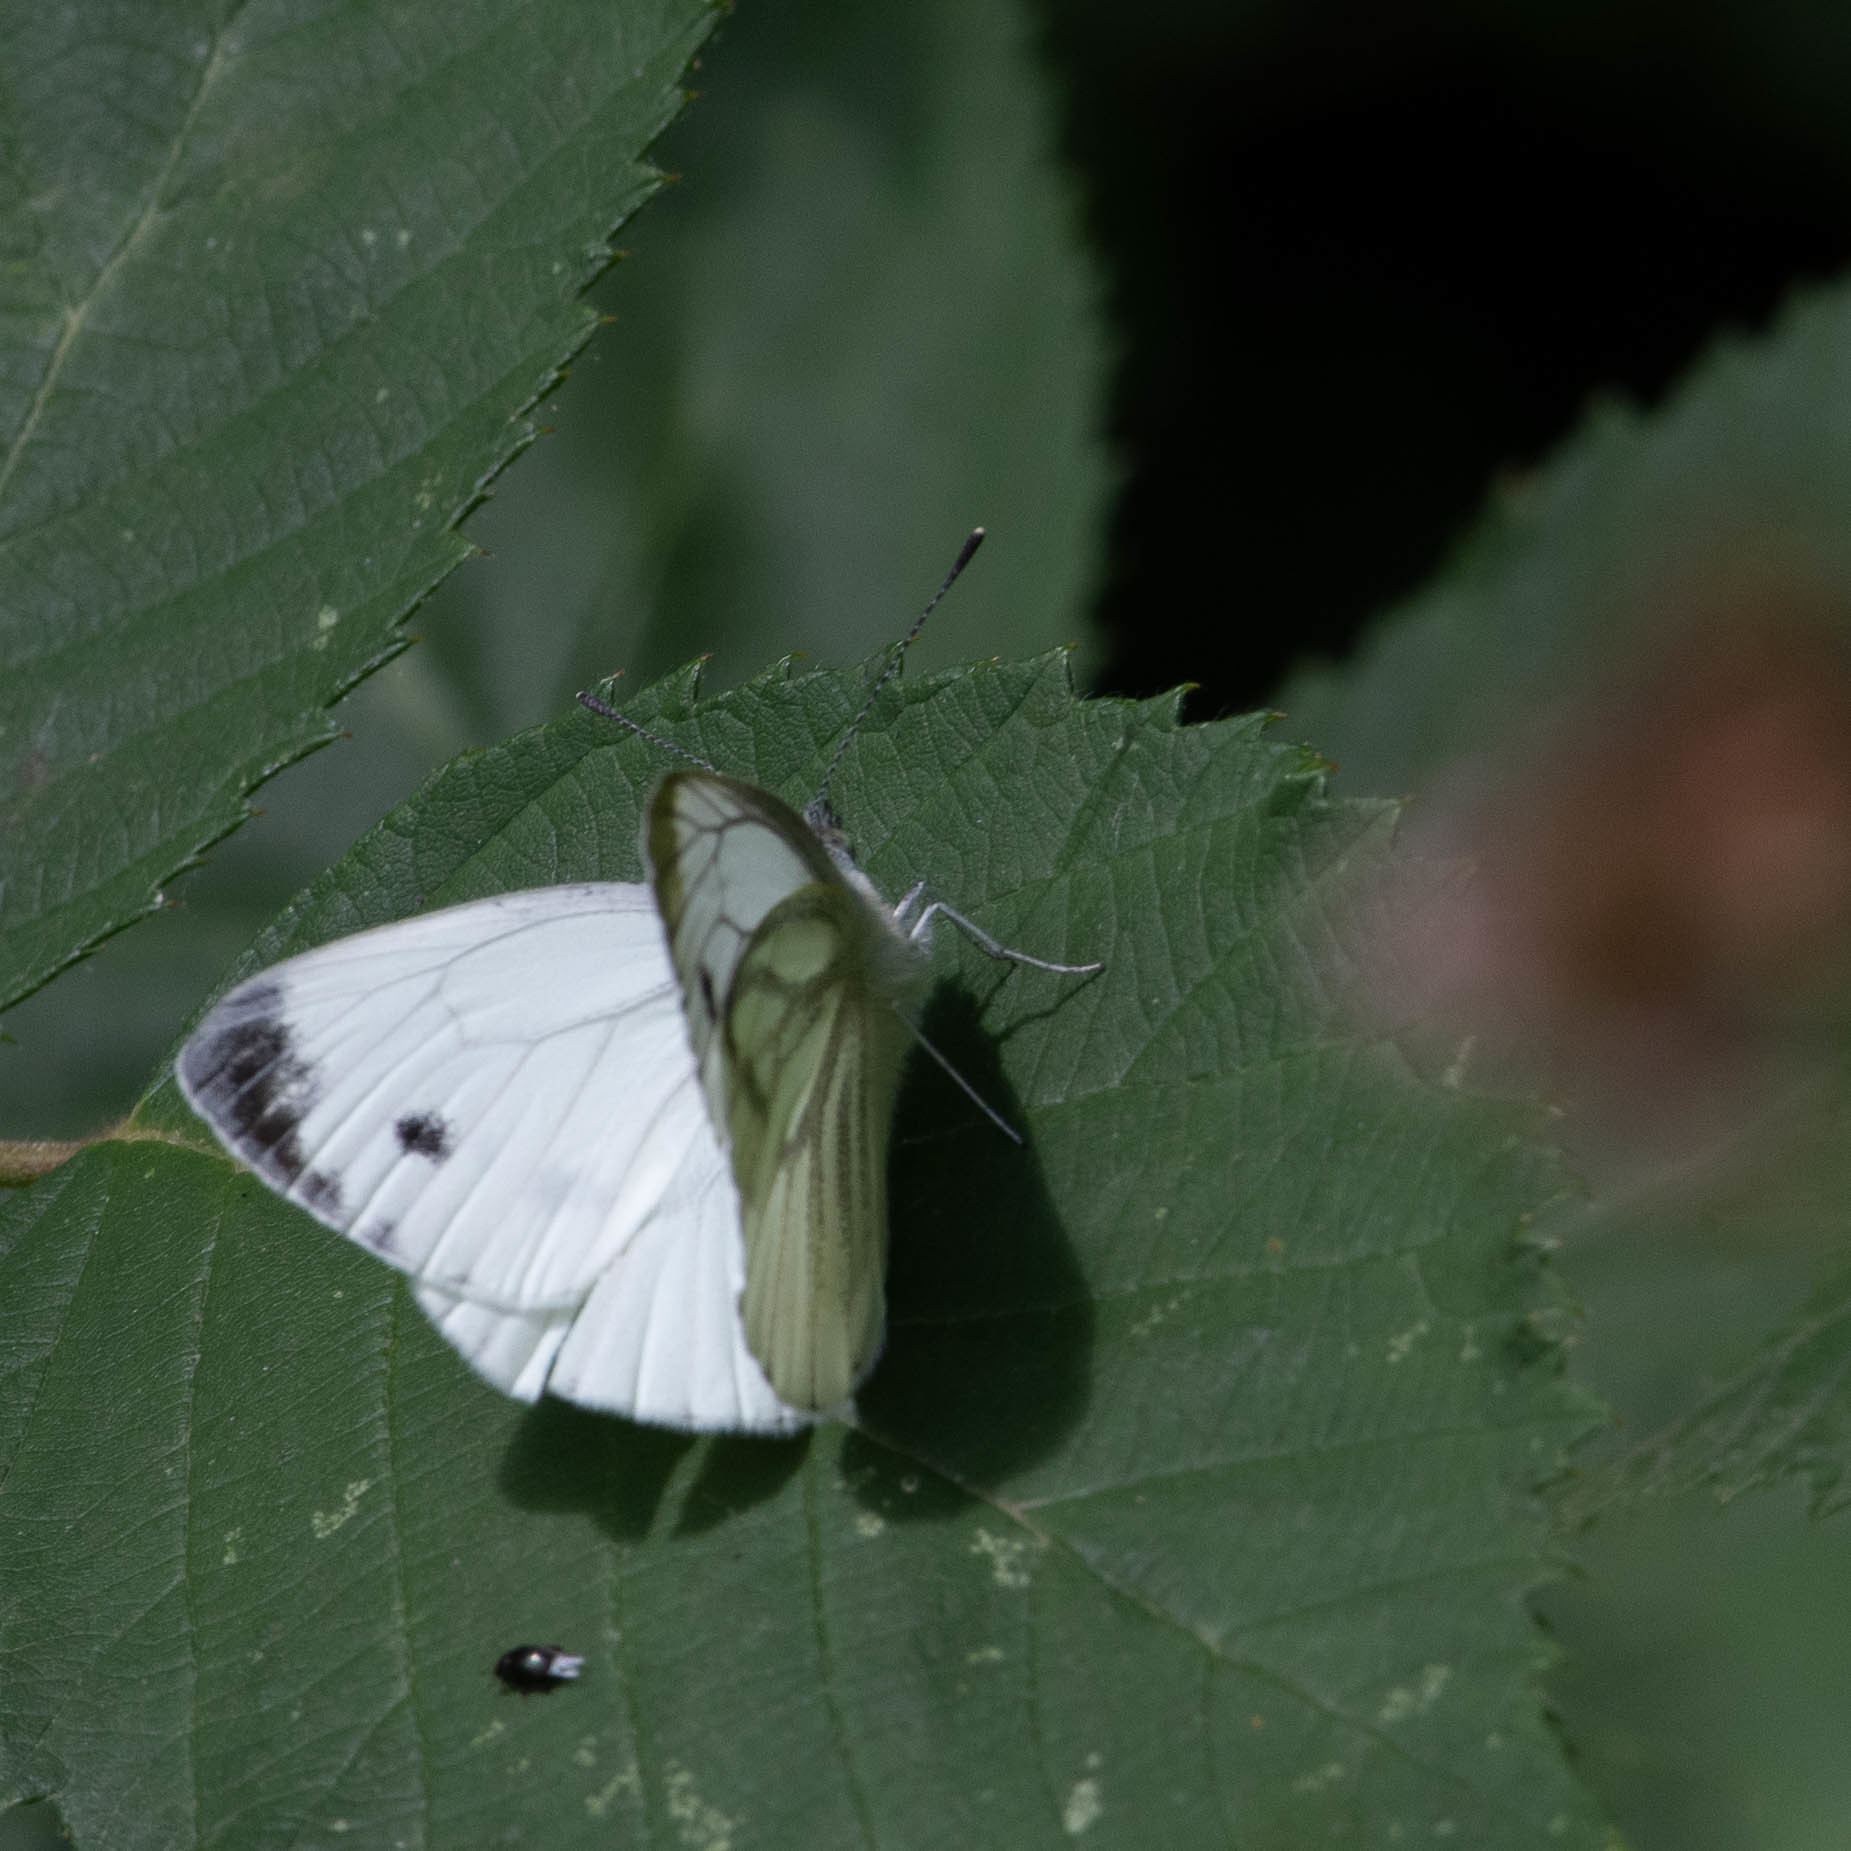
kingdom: Animalia
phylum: Arthropoda
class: Insecta
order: Lepidoptera
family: Pieridae
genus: Pieris
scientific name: Pieris napi
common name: Green-veined white
